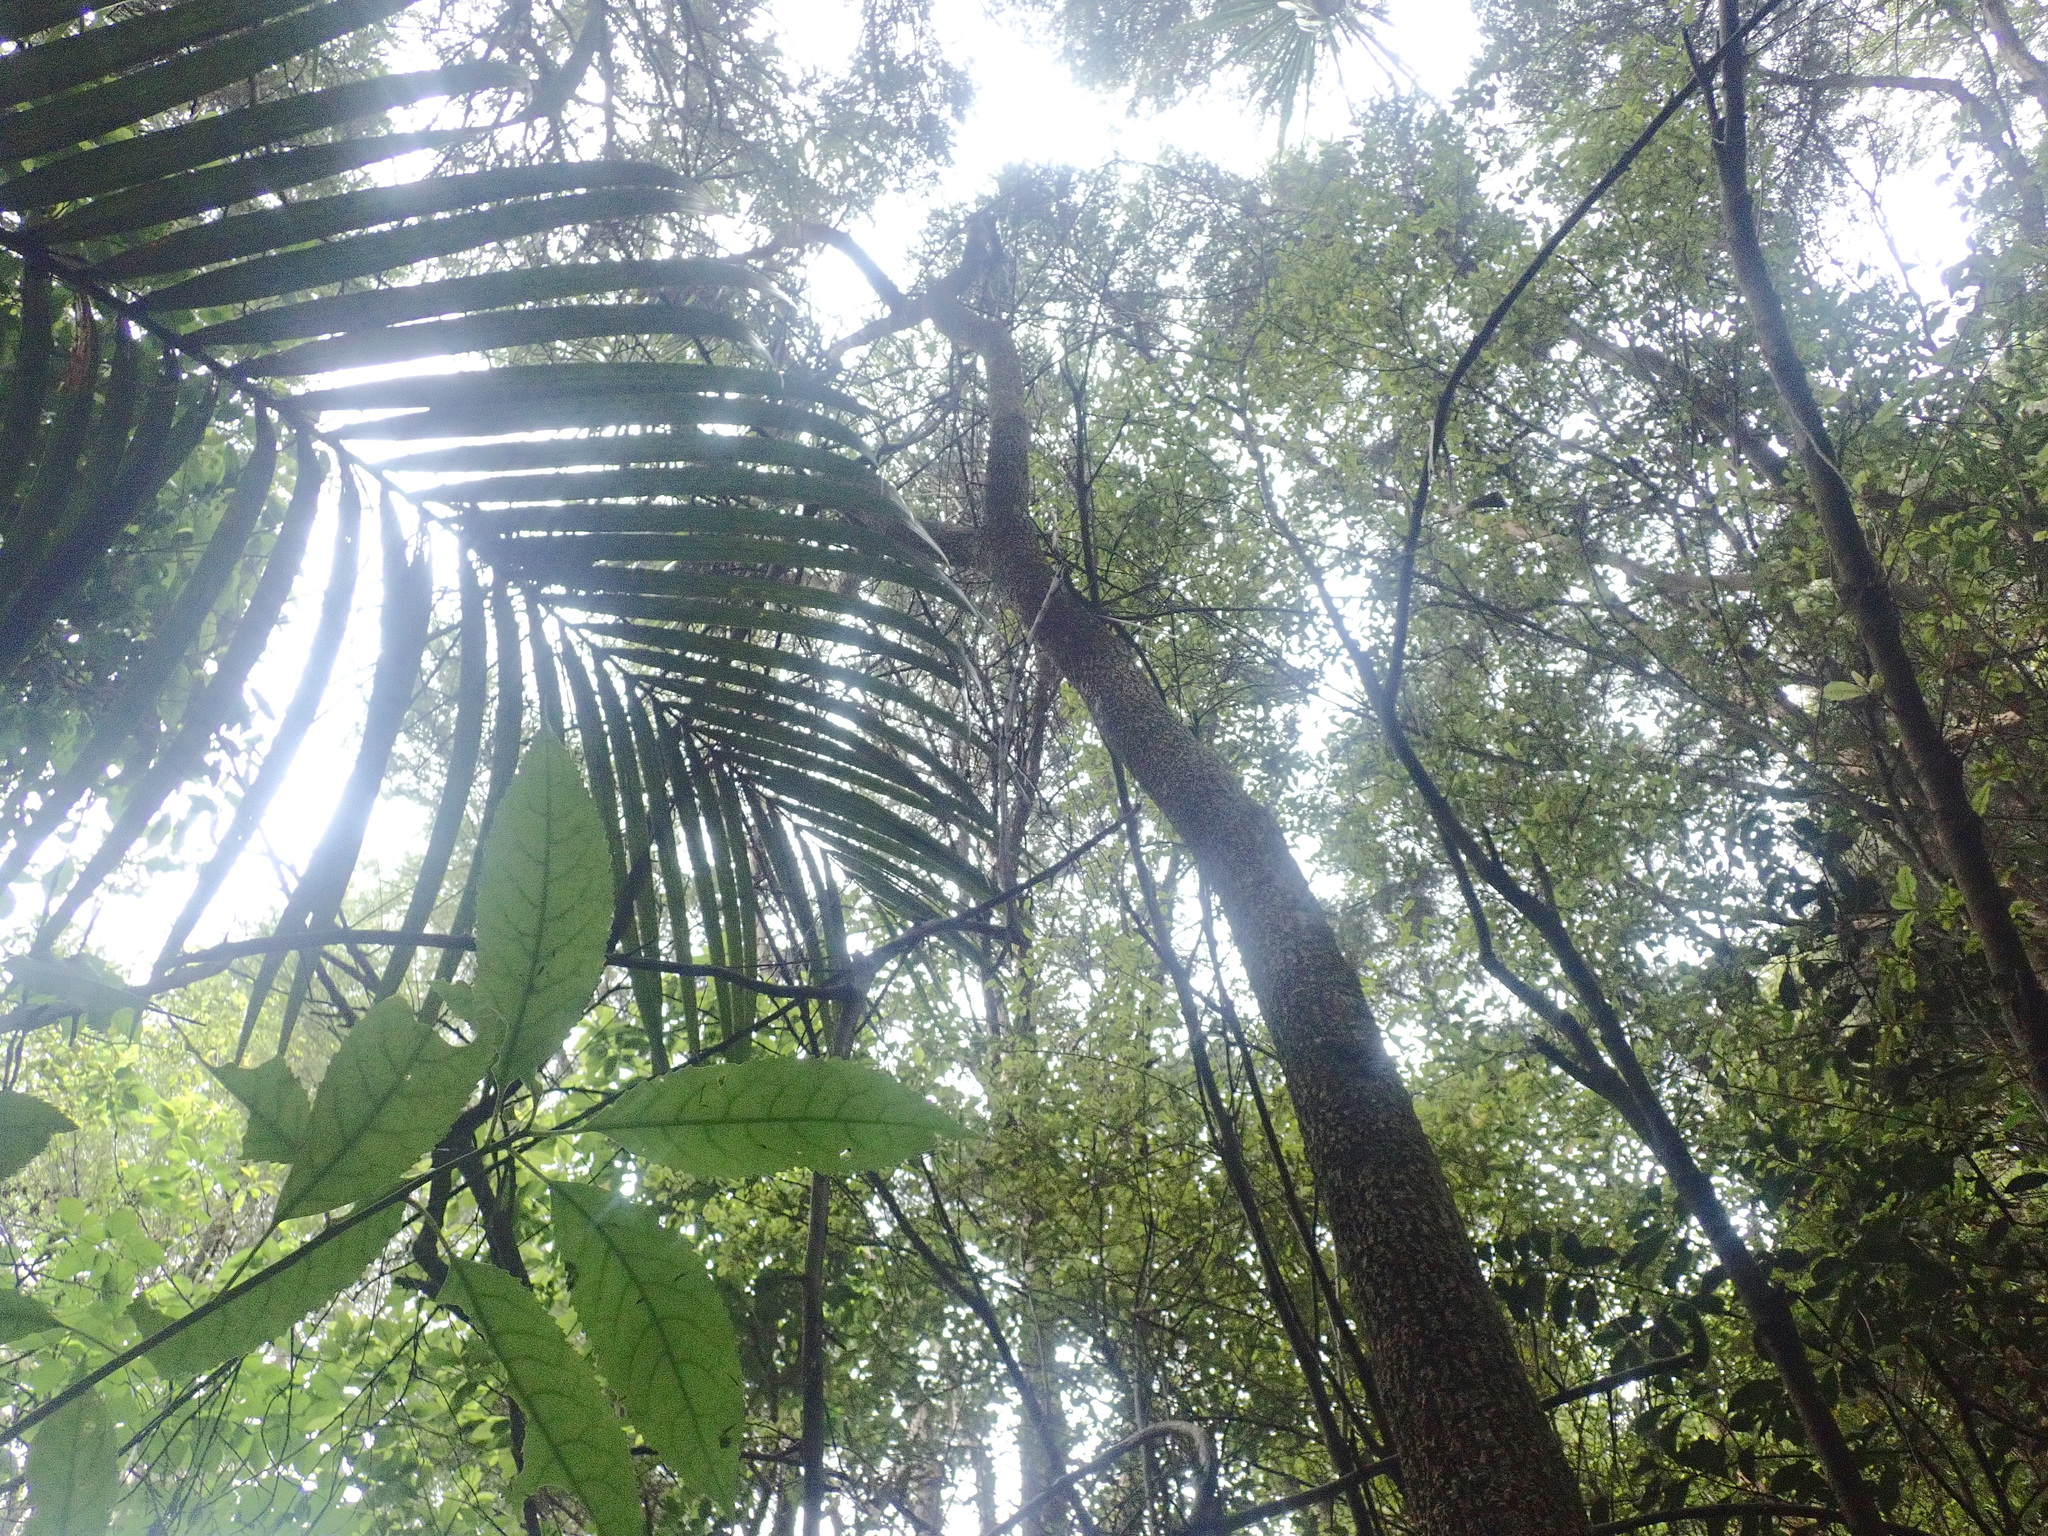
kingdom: Plantae
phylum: Tracheophyta
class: Liliopsida
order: Asparagales
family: Asparagaceae
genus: Cordyline
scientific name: Cordyline australis
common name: Cabbage-palm
